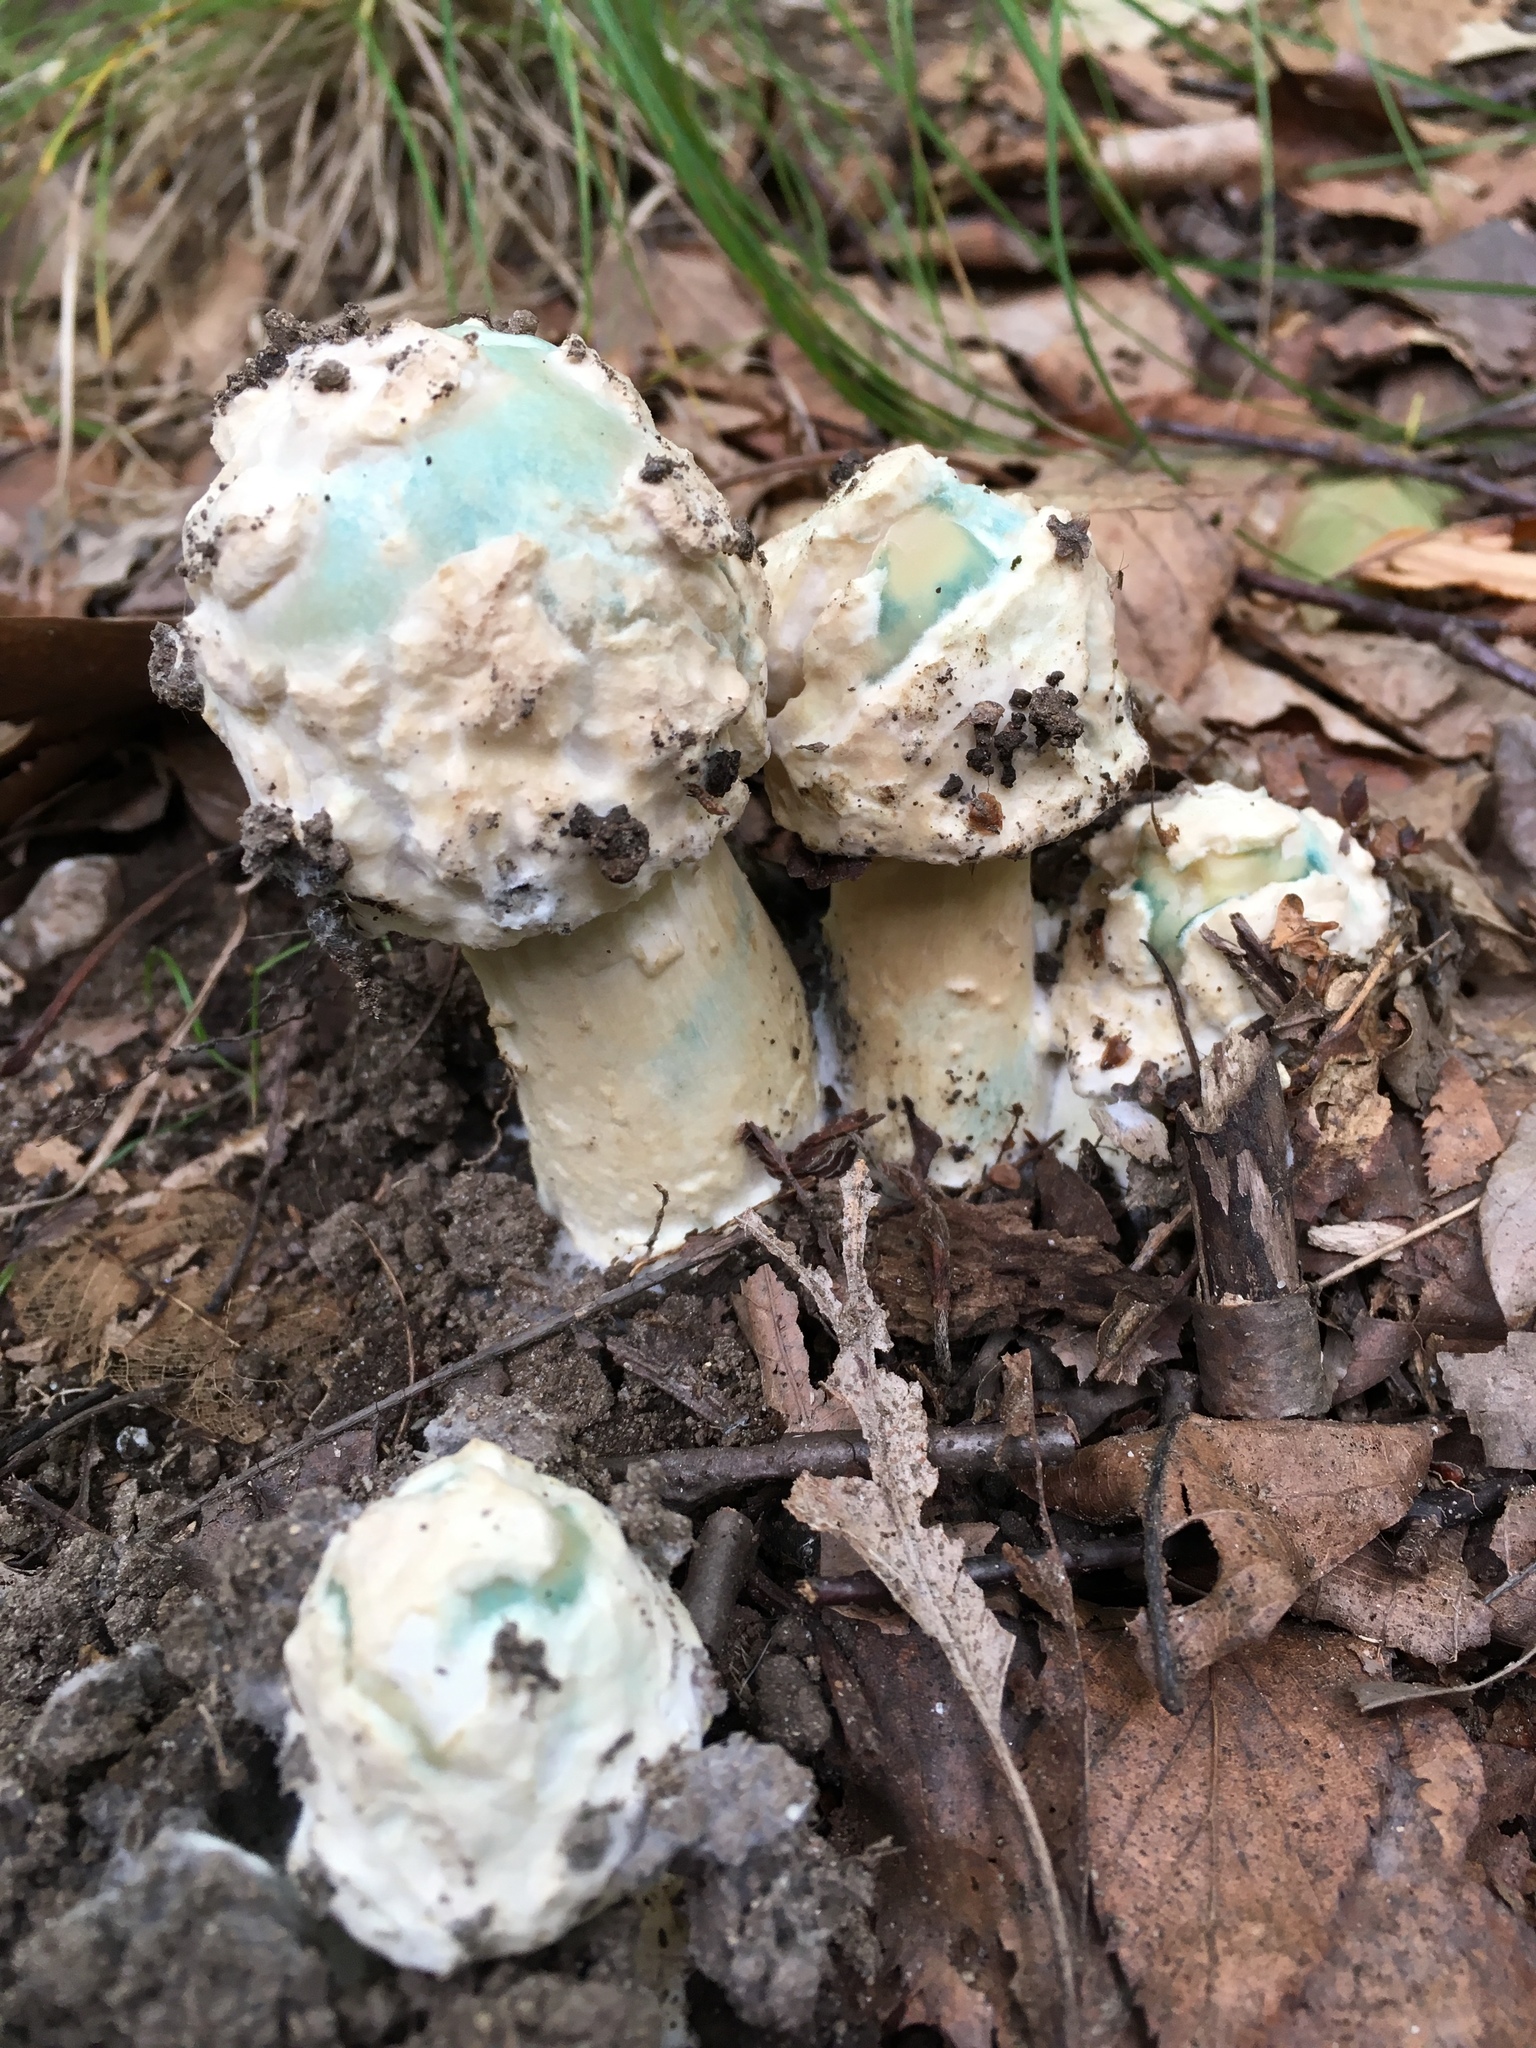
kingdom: Fungi
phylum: Ascomycota
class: Sordariomycetes
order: Hypocreales
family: Hypocreaceae
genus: Hypomyces
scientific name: Hypomyces hyalinus
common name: Amanita mold
